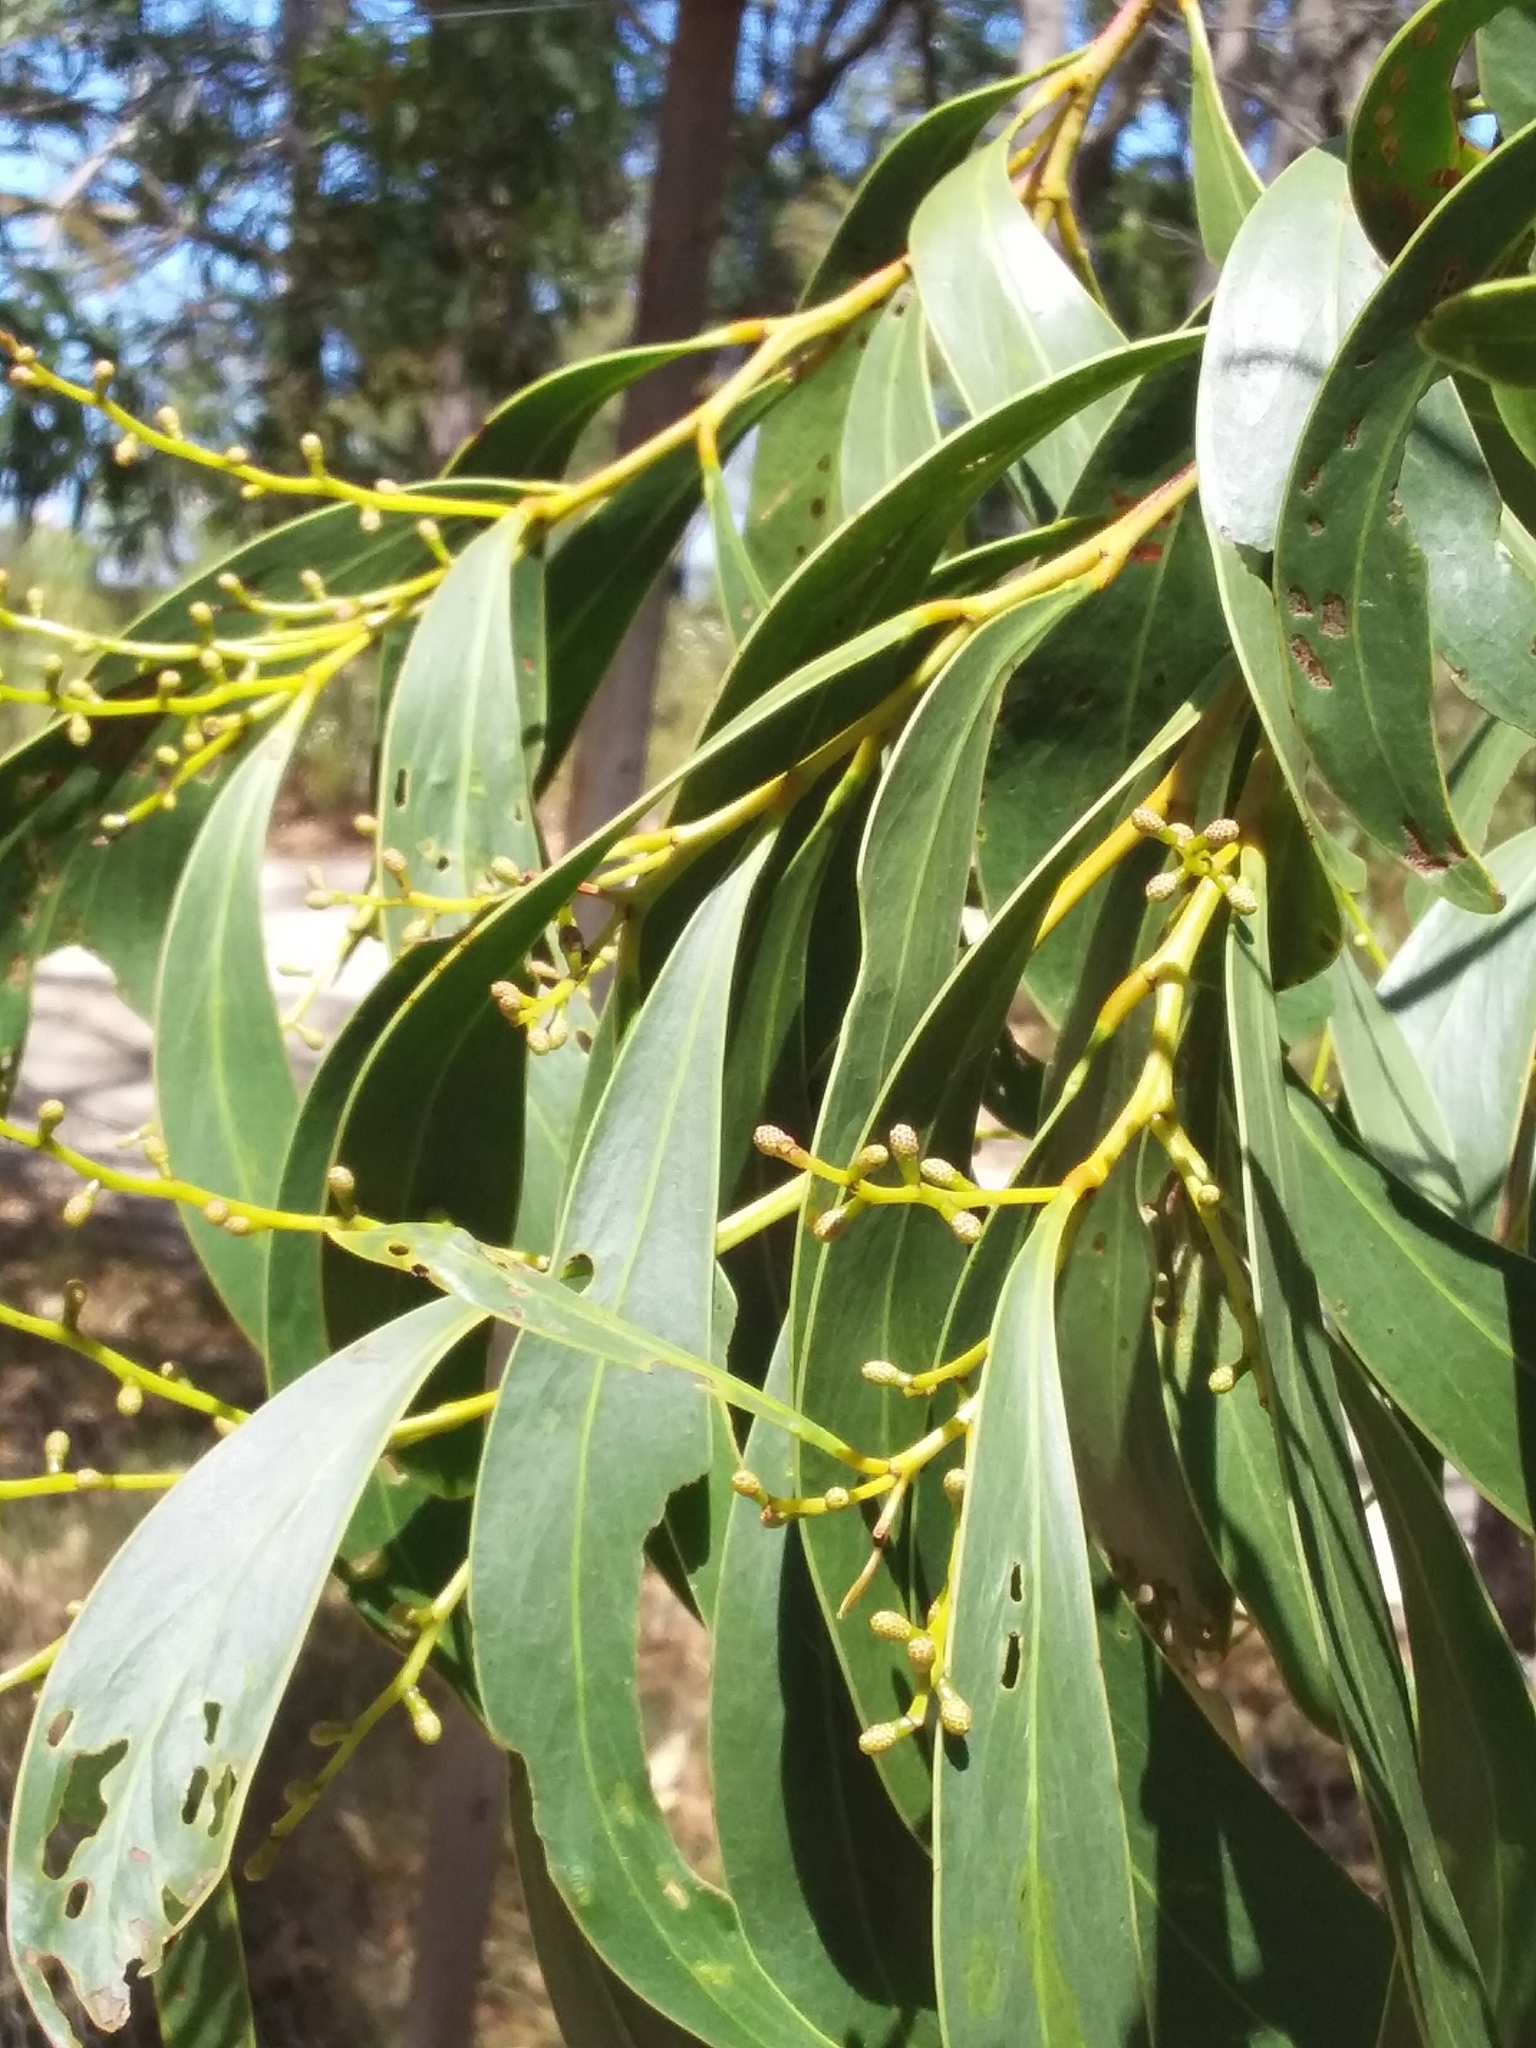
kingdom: Plantae
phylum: Tracheophyta
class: Magnoliopsida
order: Fabales
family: Fabaceae
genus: Acacia
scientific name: Acacia pycnantha
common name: Golden wattle
